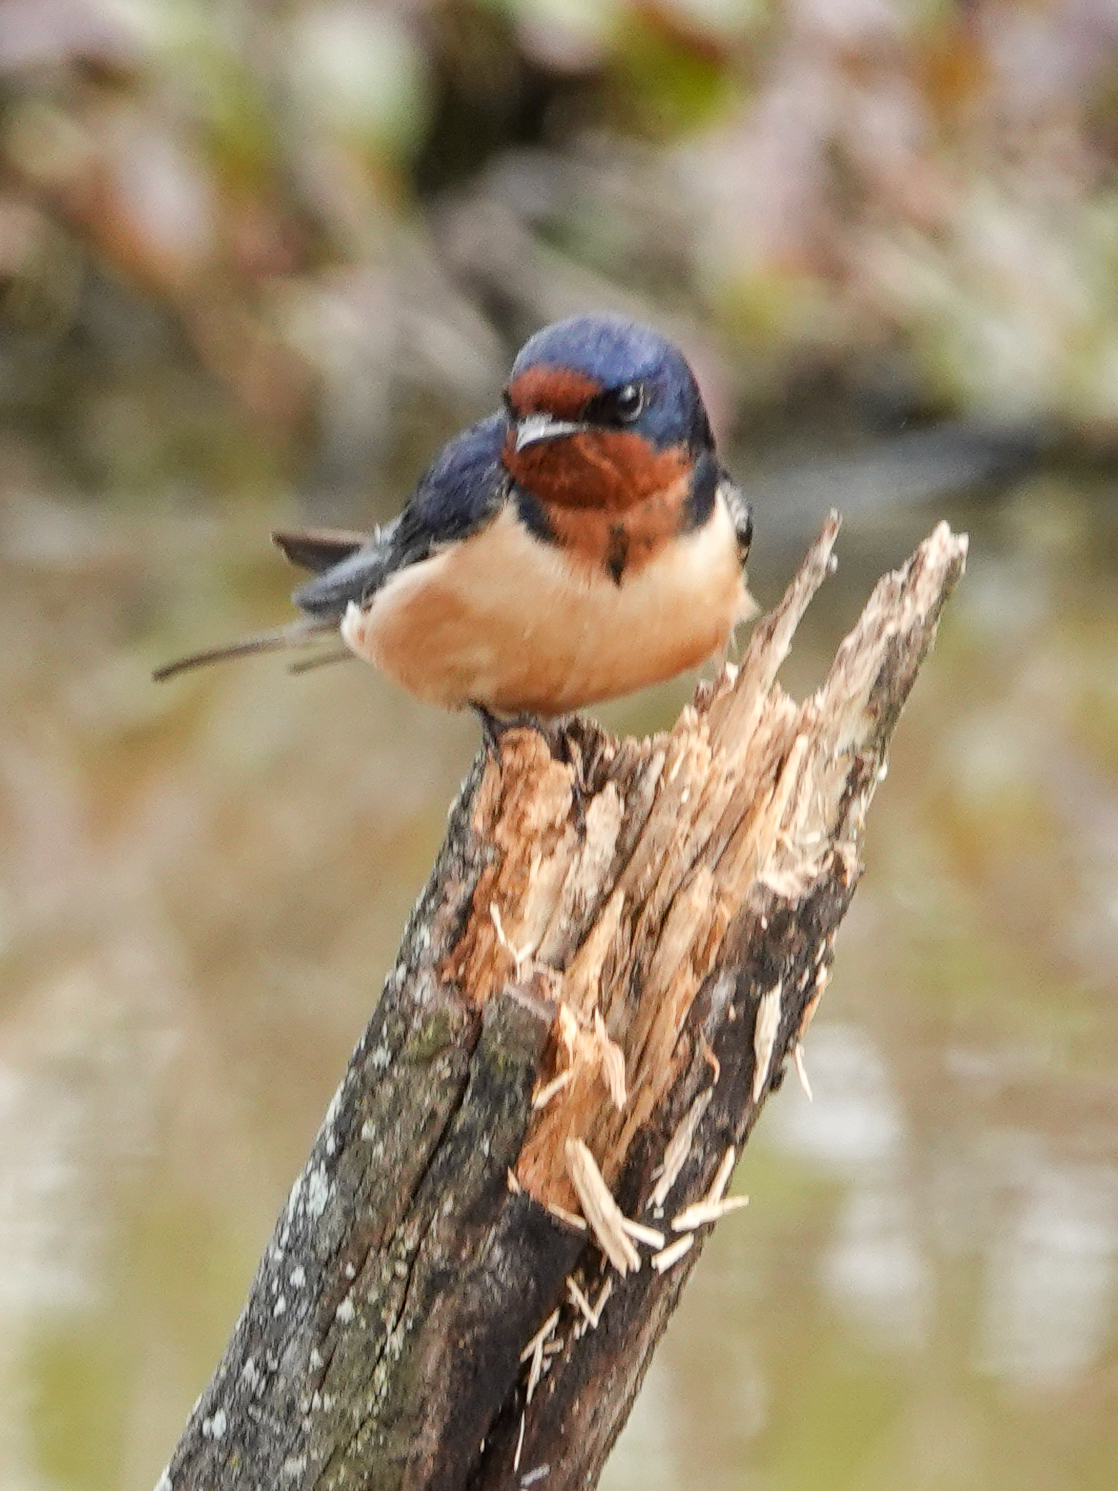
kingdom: Animalia
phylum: Chordata
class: Aves
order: Passeriformes
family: Hirundinidae
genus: Hirundo
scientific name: Hirundo rustica
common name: Barn swallow
